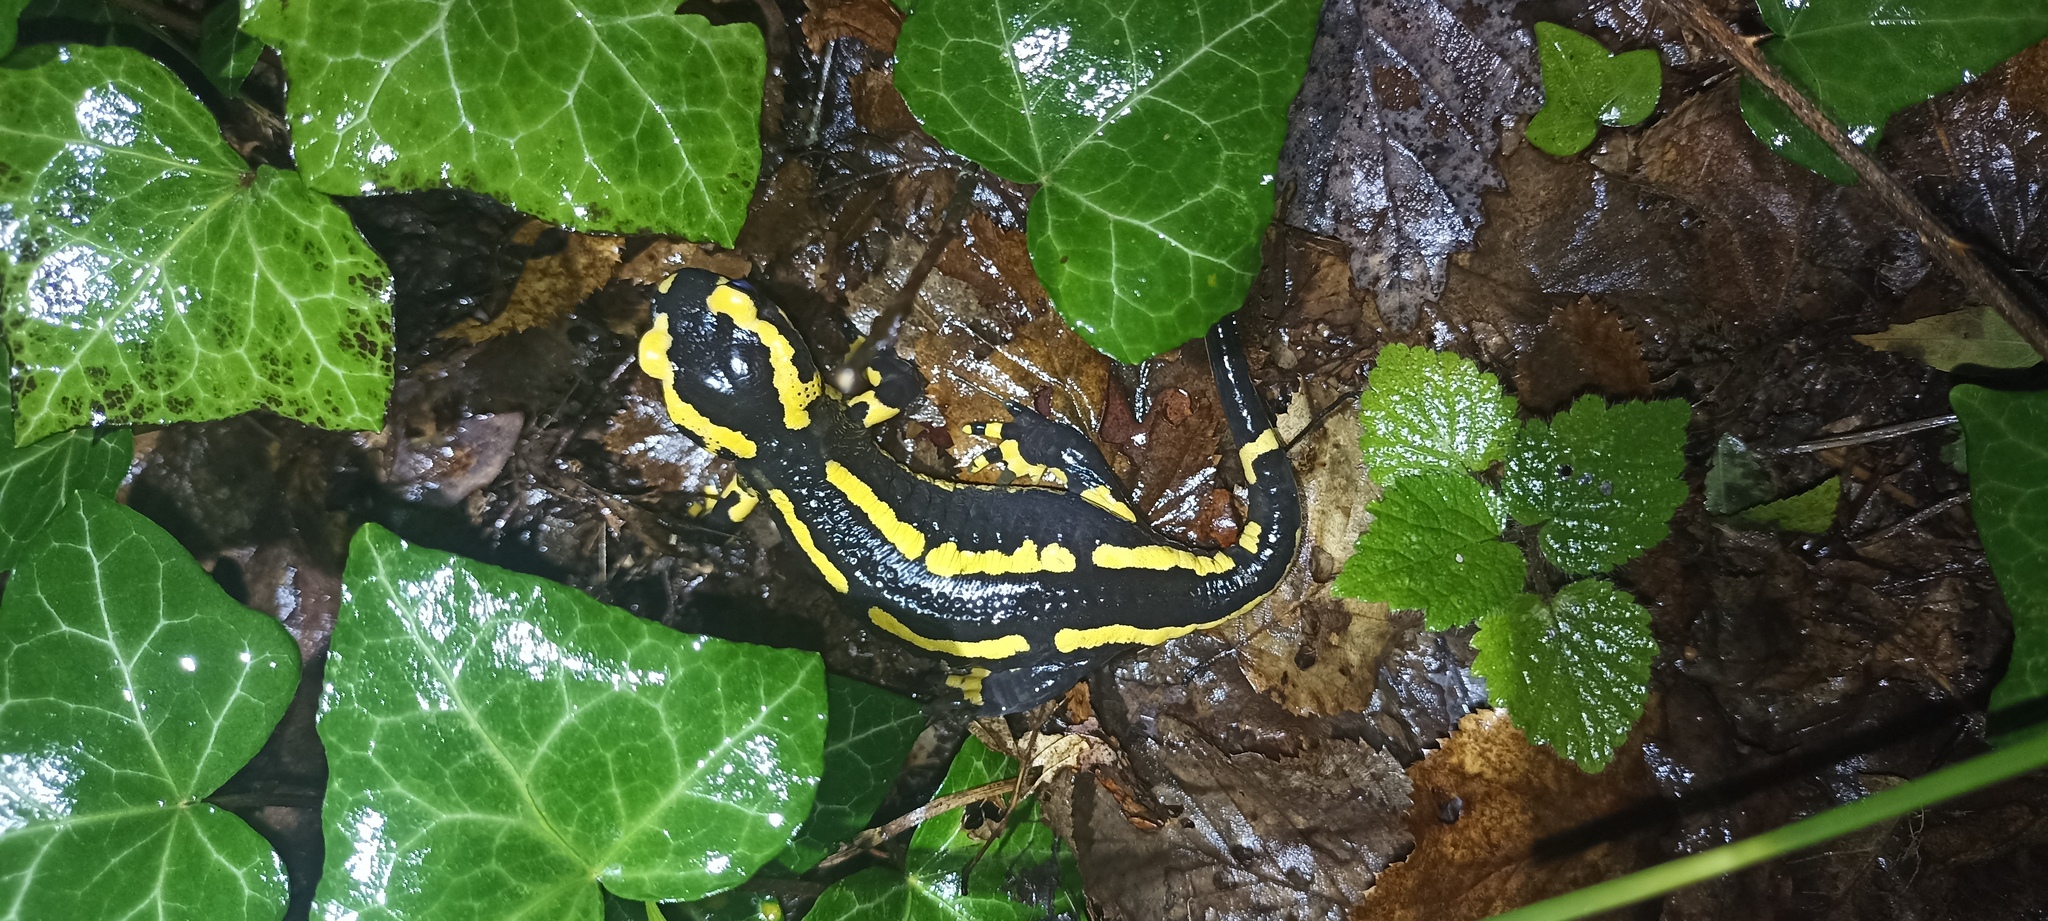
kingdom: Animalia
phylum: Chordata
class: Amphibia
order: Caudata
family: Salamandridae
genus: Salamandra
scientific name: Salamandra salamandra
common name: Fire salamander
